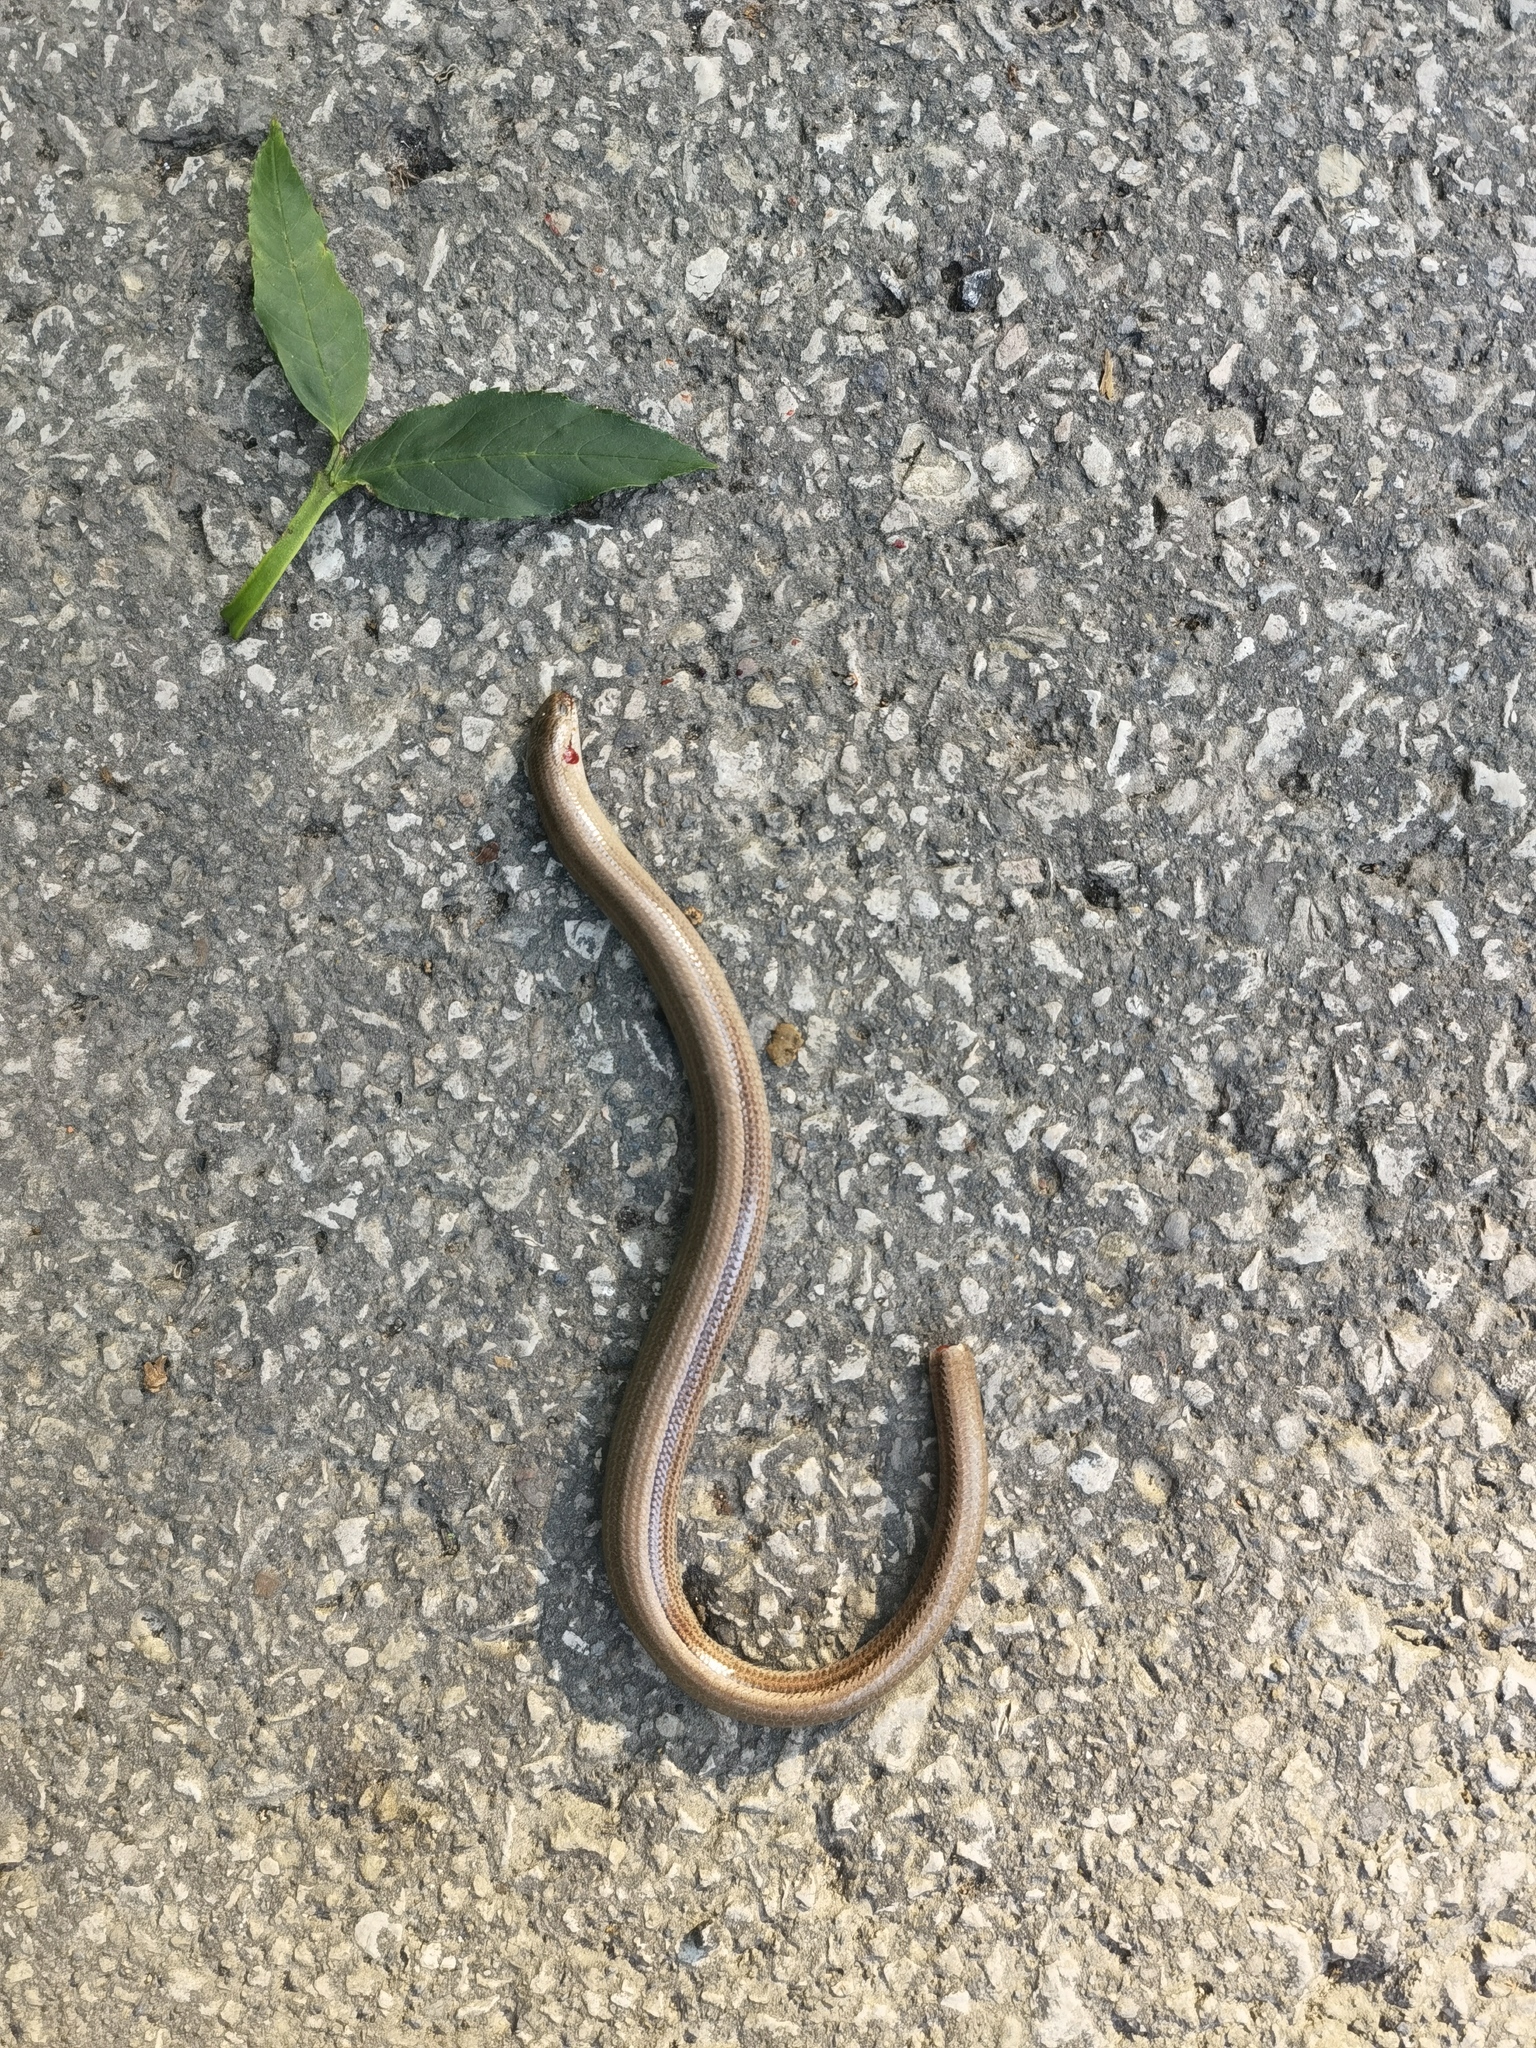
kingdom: Animalia
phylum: Chordata
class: Squamata
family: Anguidae
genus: Anguis
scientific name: Anguis fragilis
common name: Slow worm
